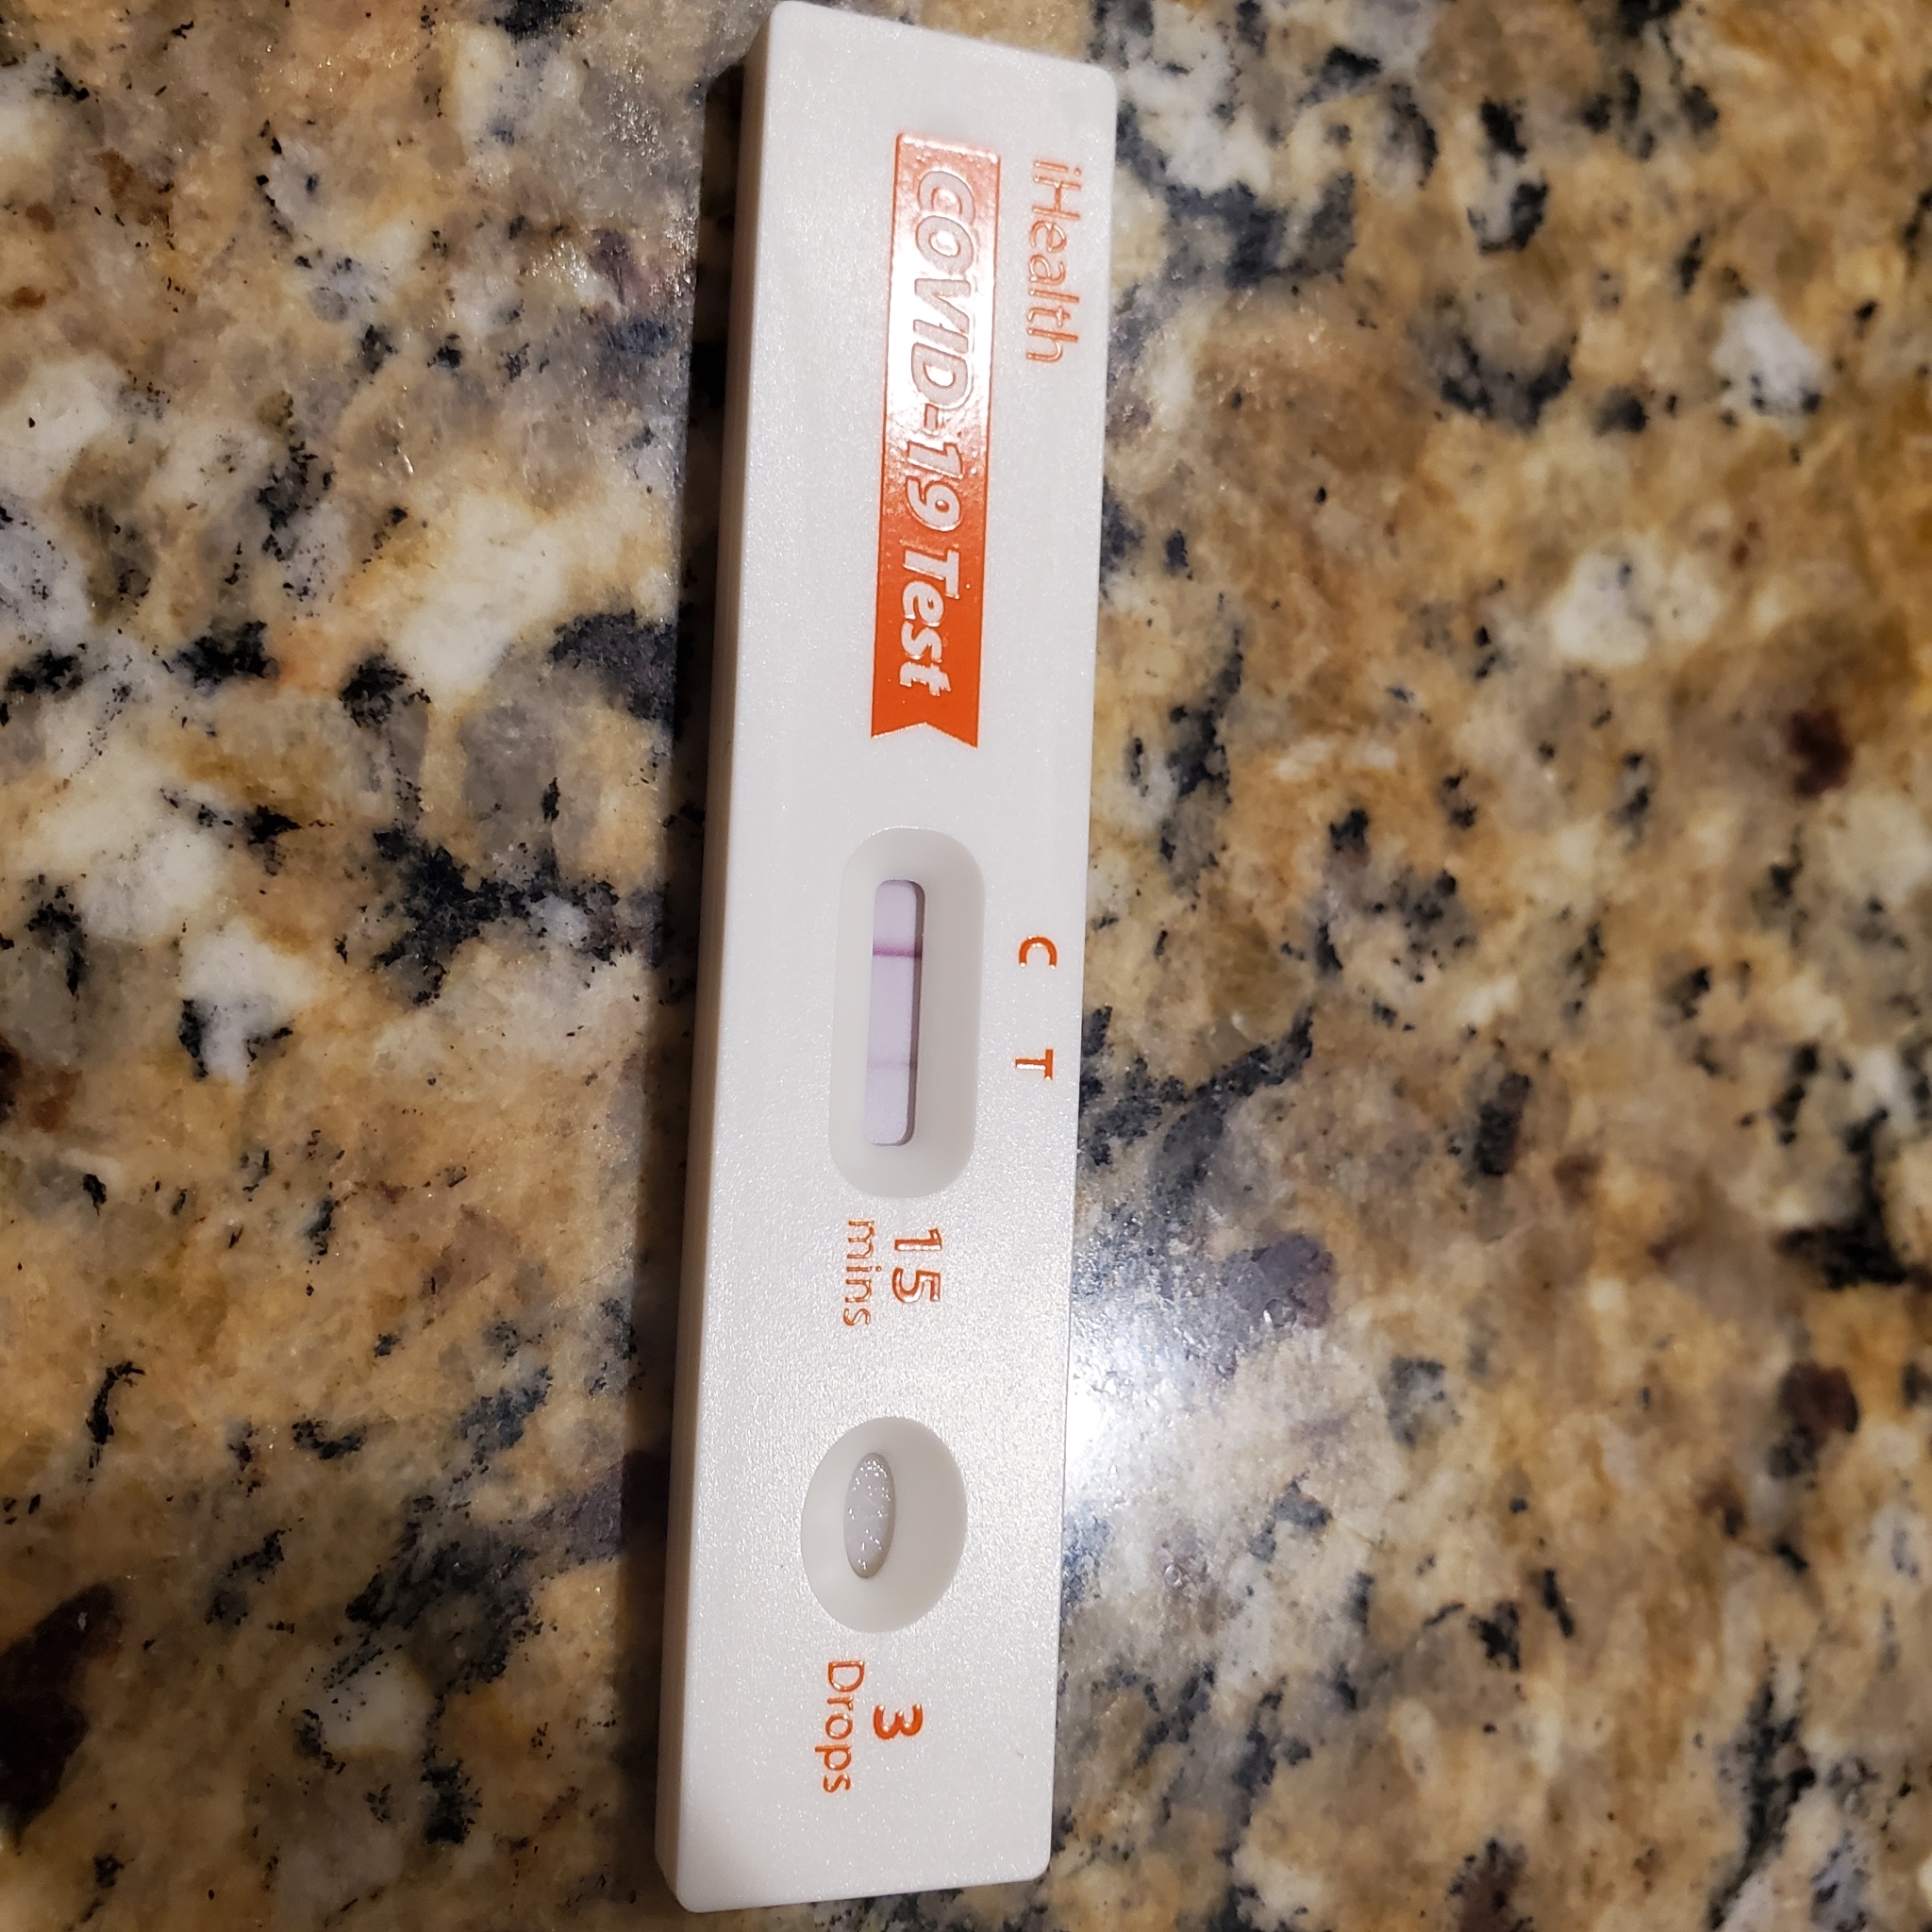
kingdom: Viruses
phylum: Pisuviricota
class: Pisoniviricetes
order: Nidovirales
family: Coronaviridae
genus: Betacoronavirus
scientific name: Betacoronavirus
